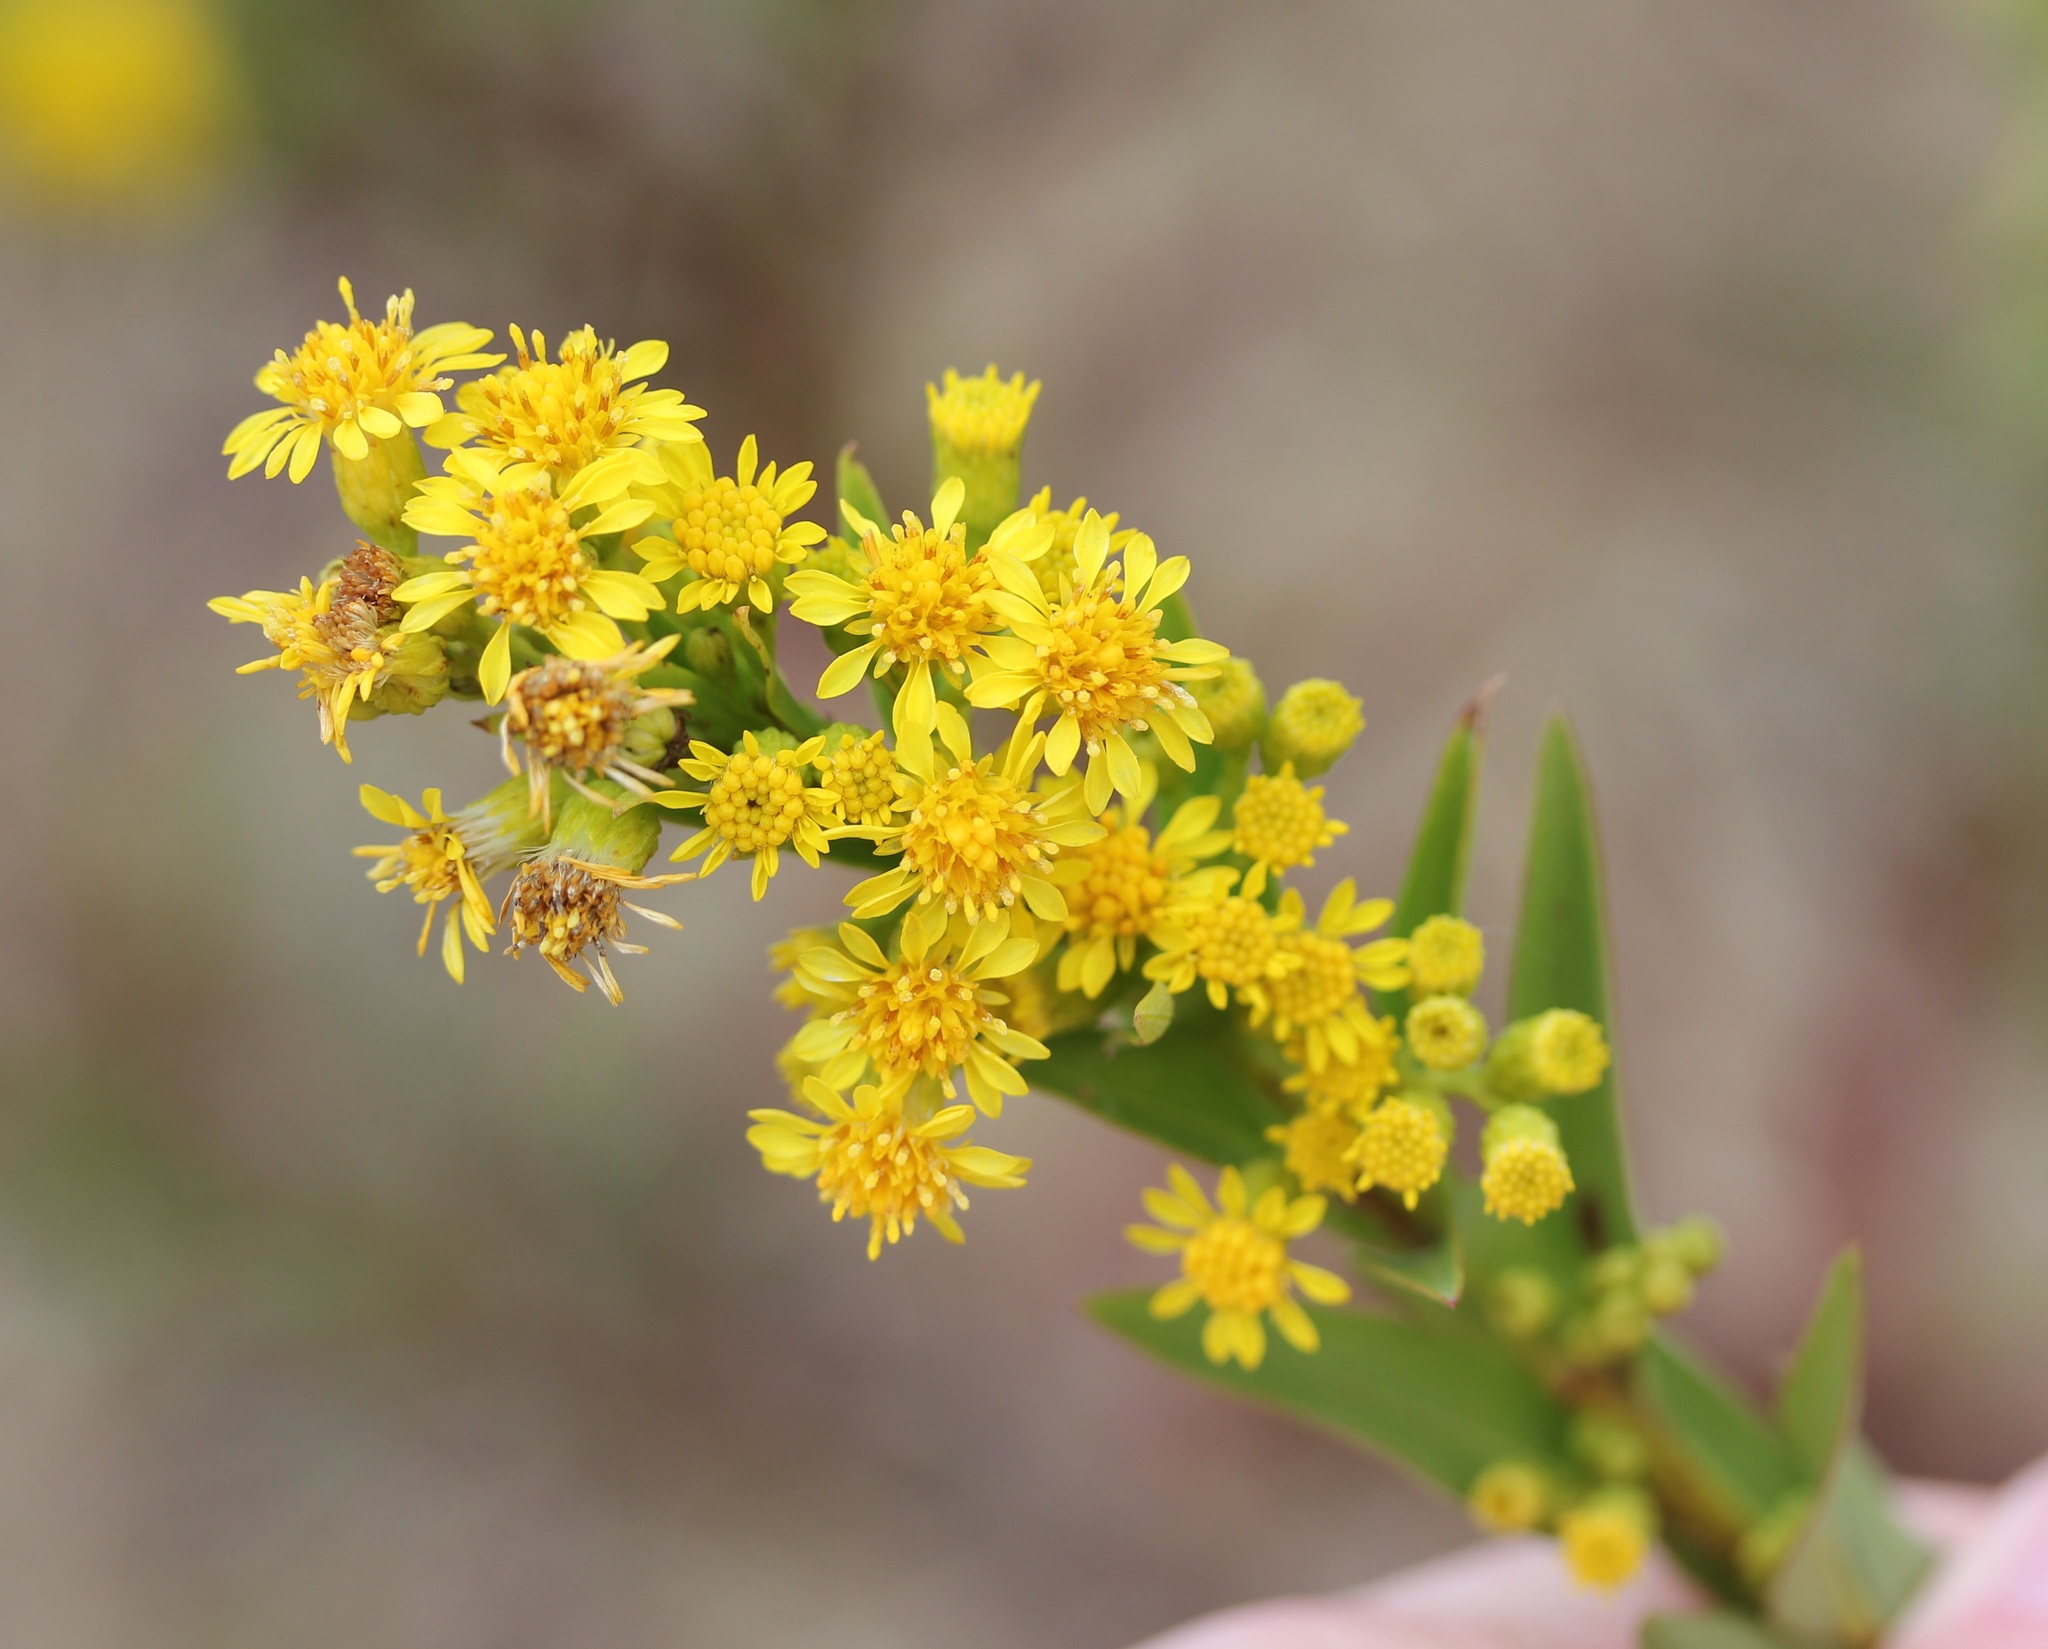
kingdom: Plantae
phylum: Tracheophyta
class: Magnoliopsida
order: Asterales
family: Asteraceae
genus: Solidago
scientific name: Solidago sempervirens
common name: Salt-marsh goldenrod
